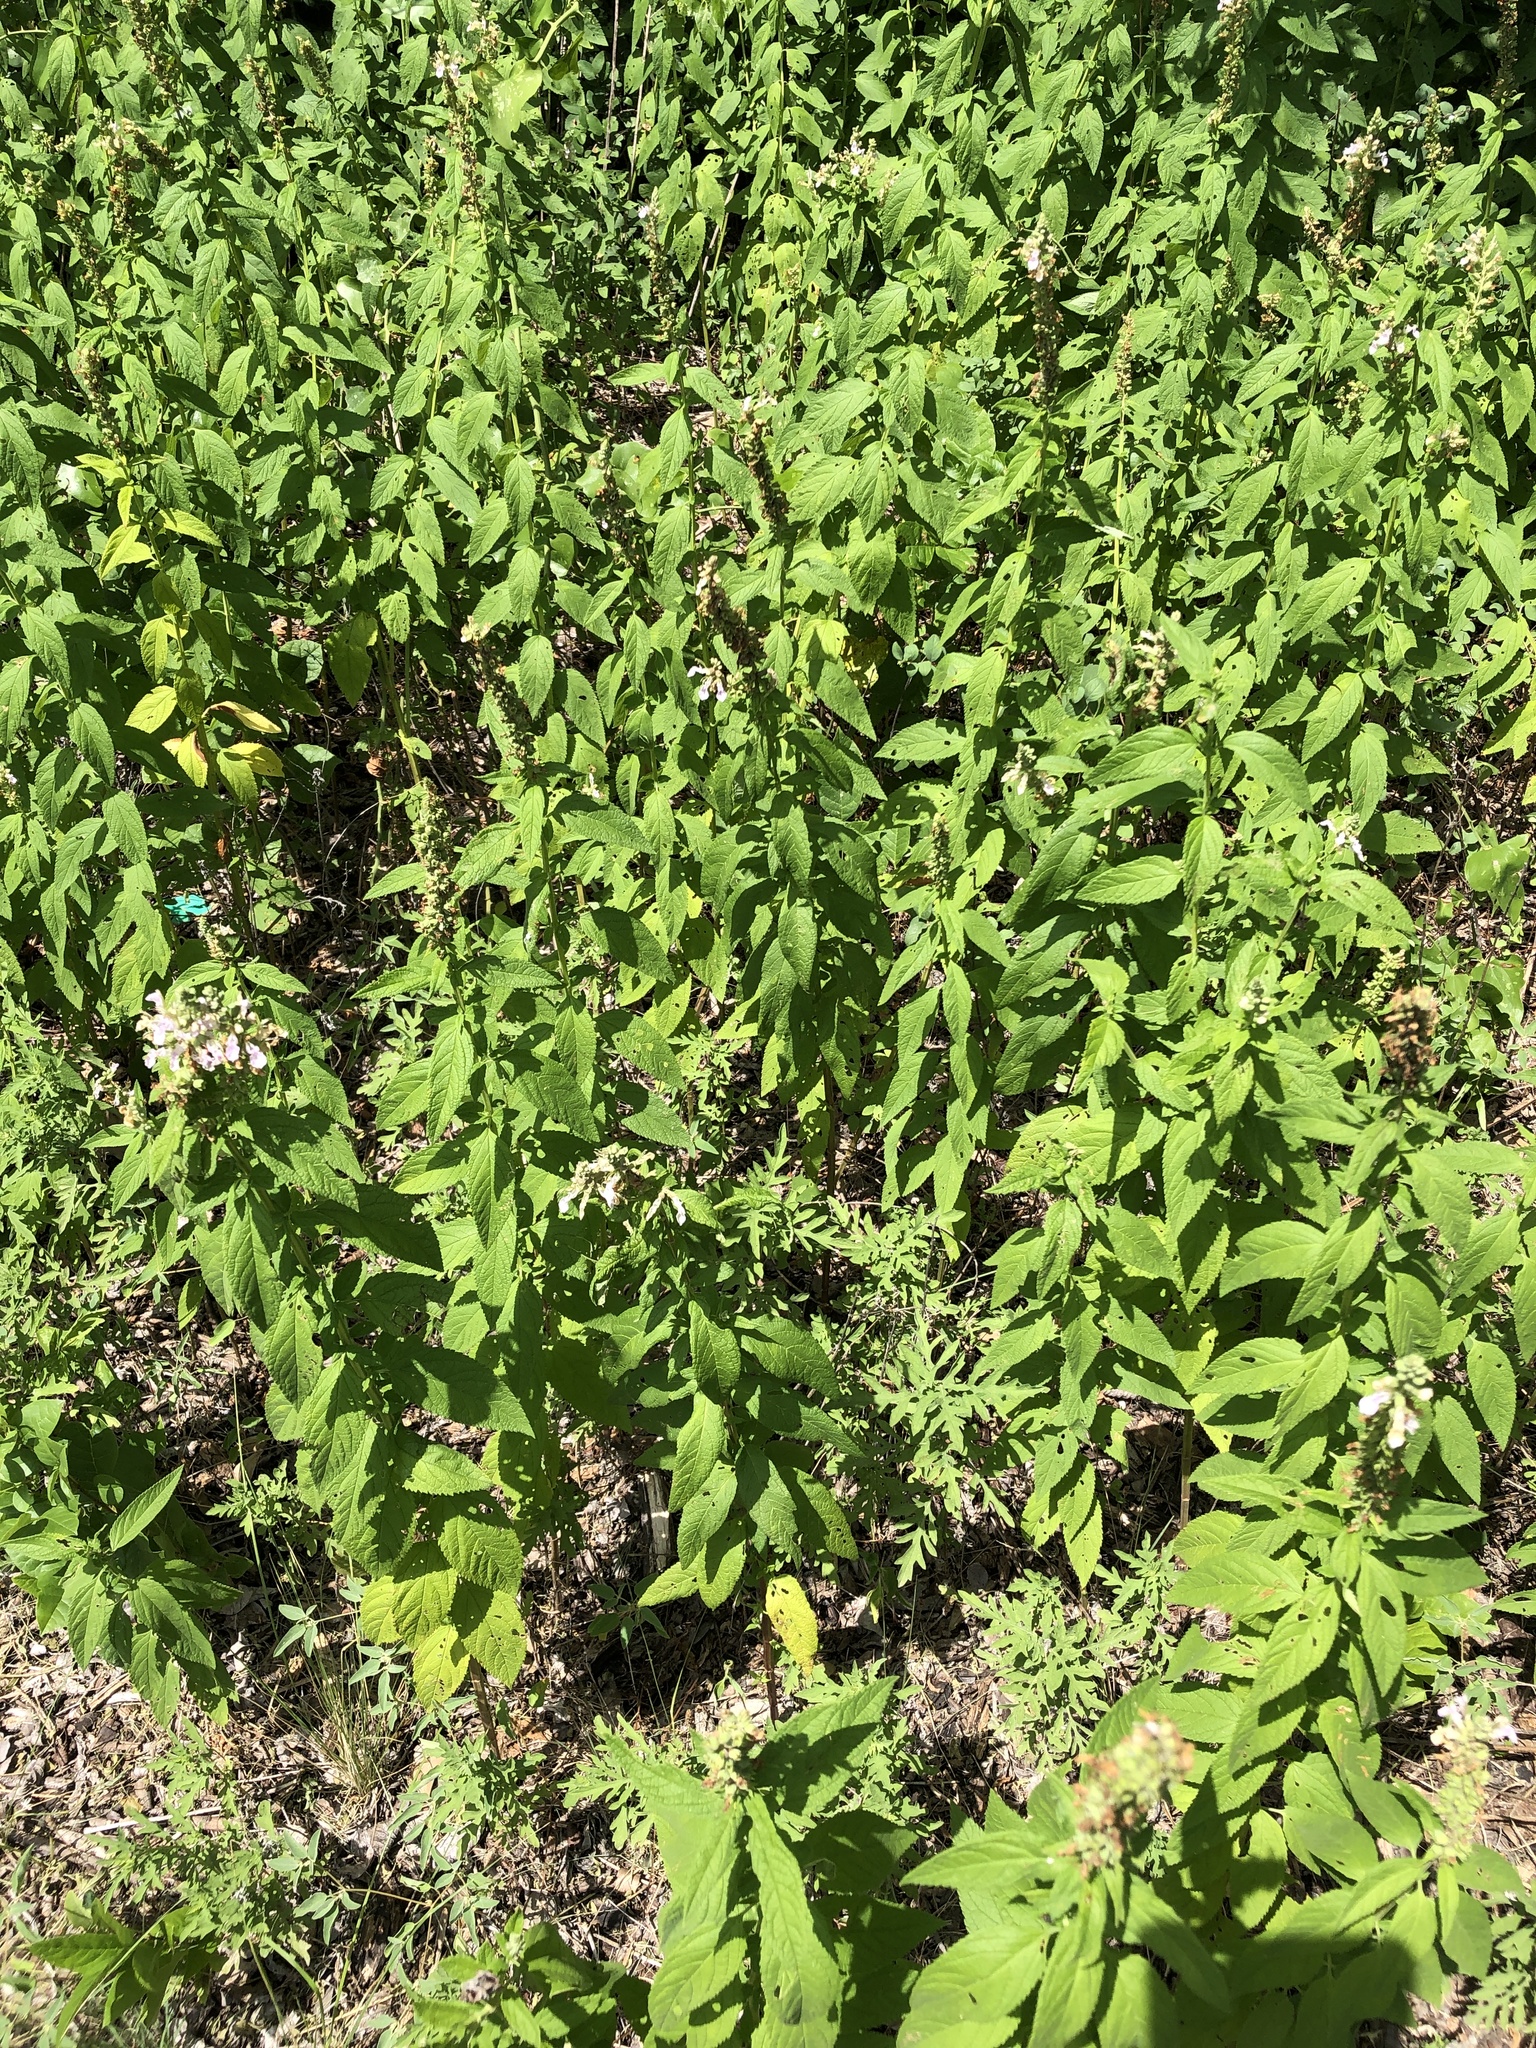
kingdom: Plantae
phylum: Tracheophyta
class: Magnoliopsida
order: Lamiales
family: Lamiaceae
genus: Teucrium
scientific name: Teucrium canadense
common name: American germander
